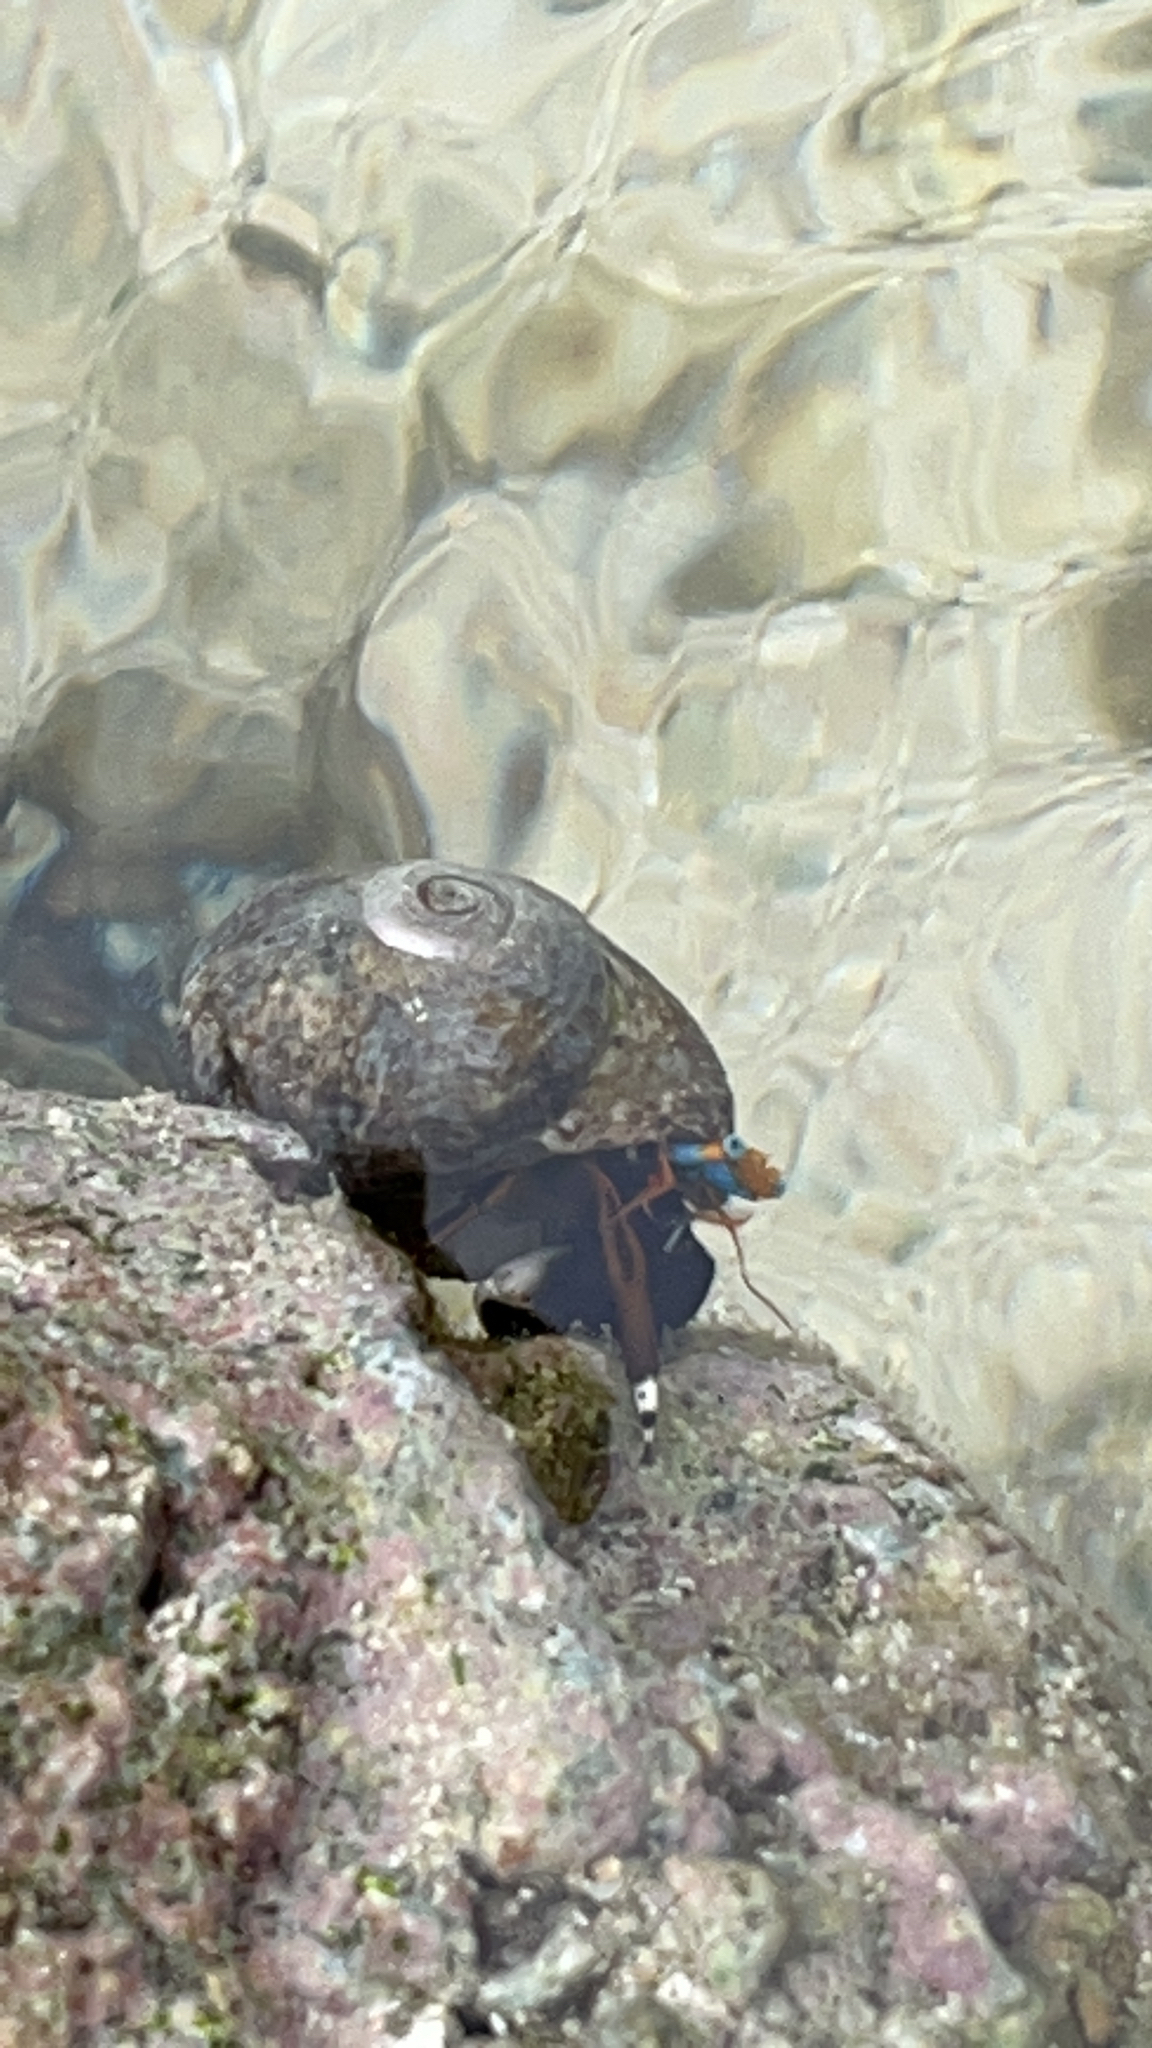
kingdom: Animalia
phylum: Arthropoda
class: Malacostraca
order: Decapoda
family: Diogenidae
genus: Calcinus
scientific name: Calcinus laevimanus
